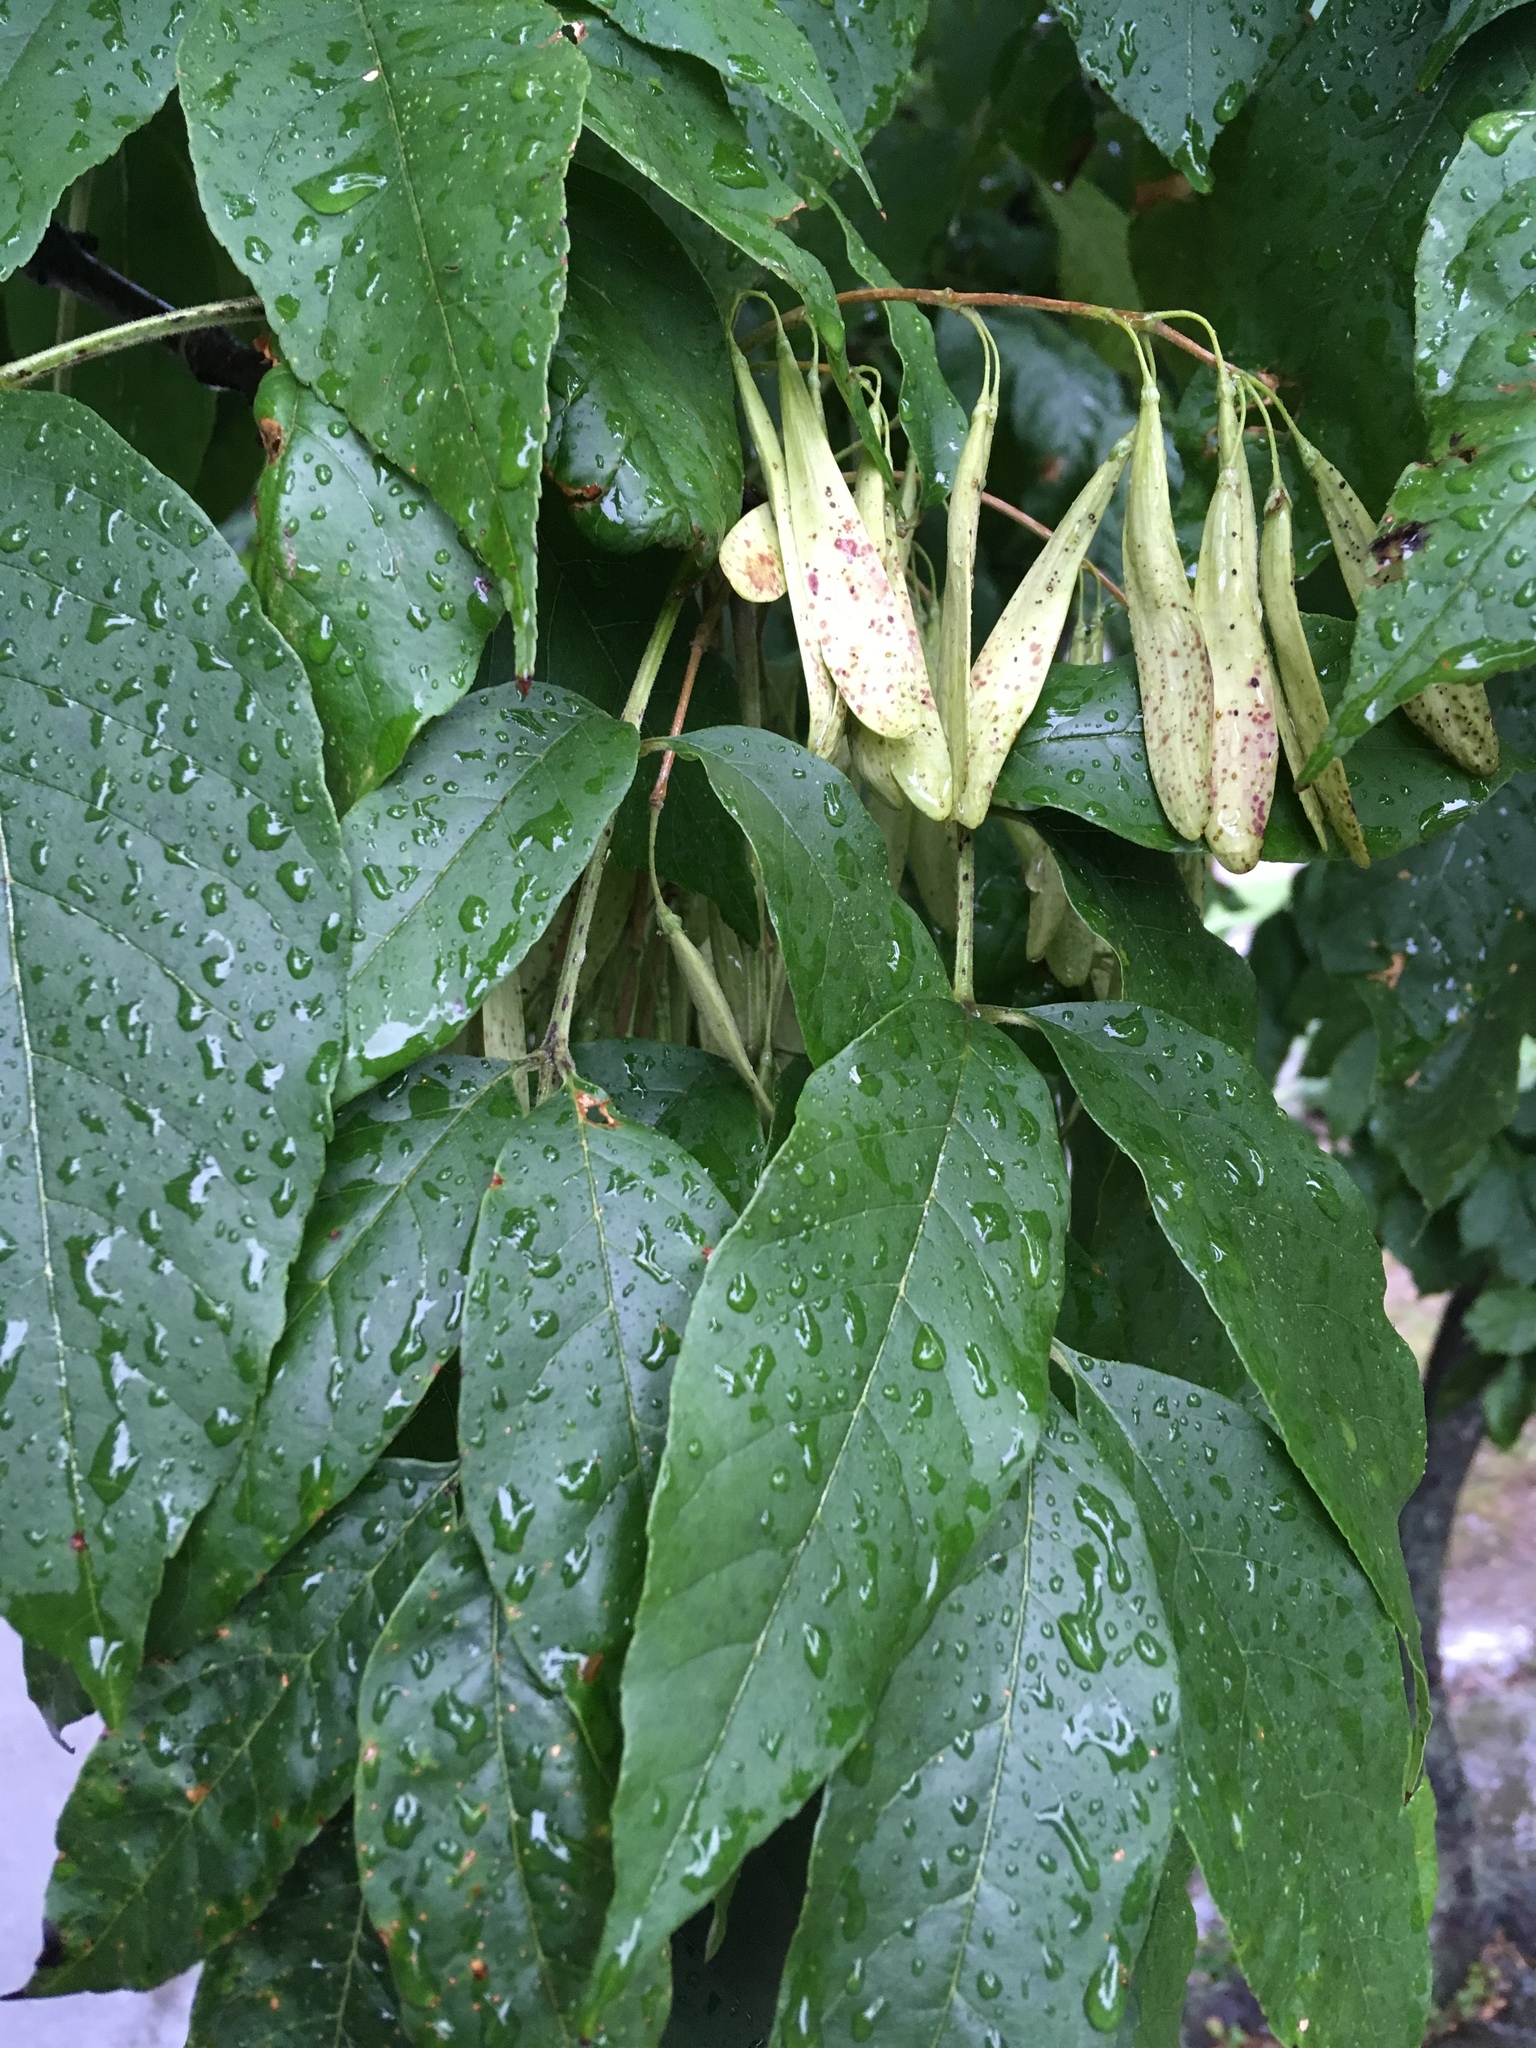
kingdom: Plantae
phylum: Tracheophyta
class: Magnoliopsida
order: Lamiales
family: Oleaceae
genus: Fraxinus
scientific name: Fraxinus profunda
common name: Pumpkin ash
